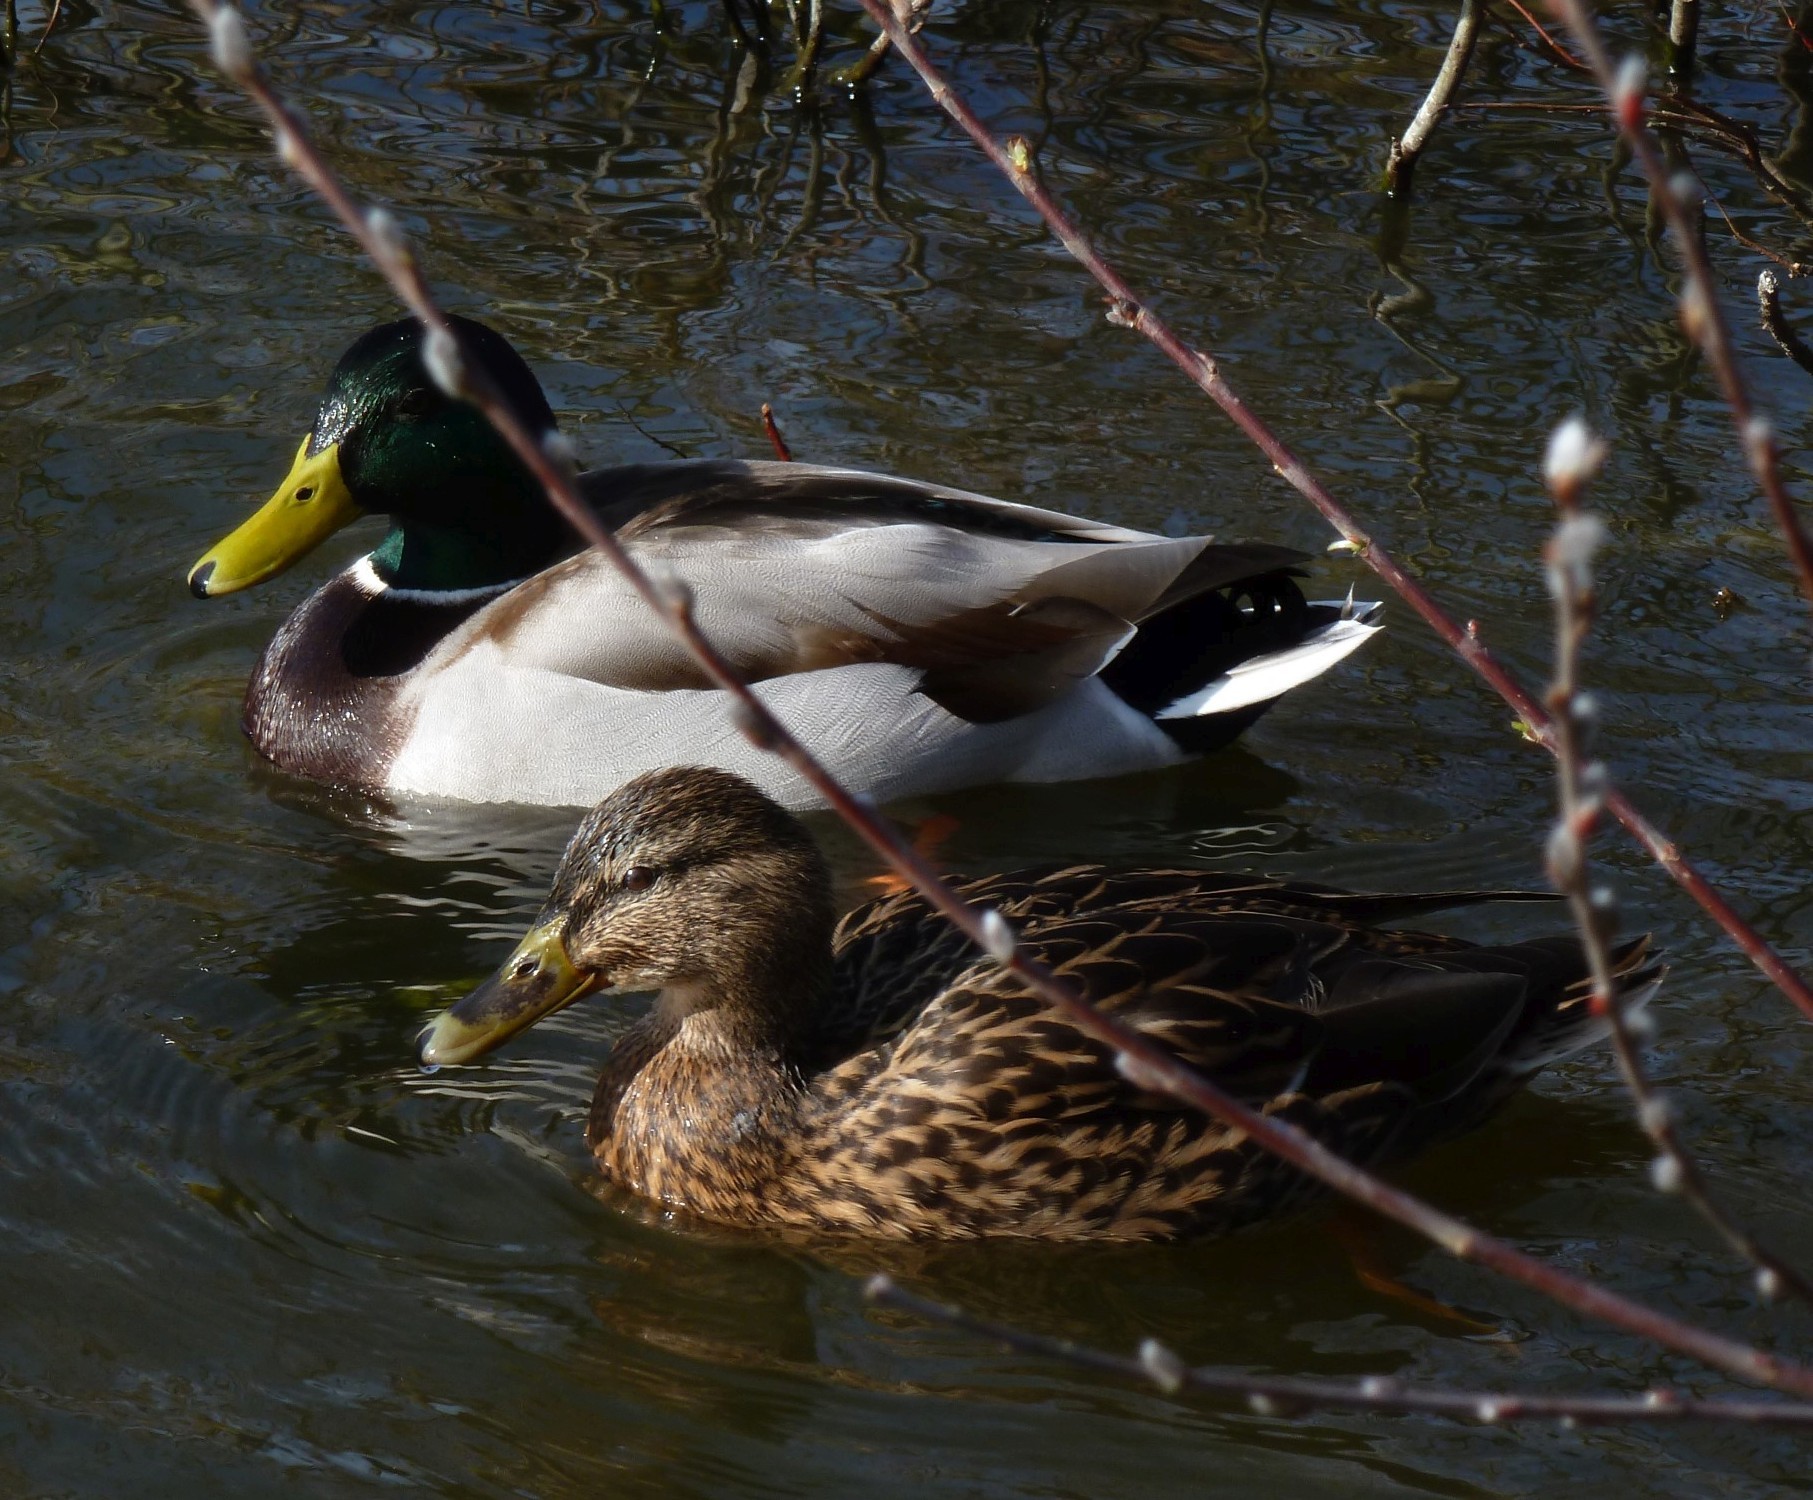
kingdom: Animalia
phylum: Chordata
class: Aves
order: Anseriformes
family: Anatidae
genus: Anas
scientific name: Anas platyrhynchos
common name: Mallard
